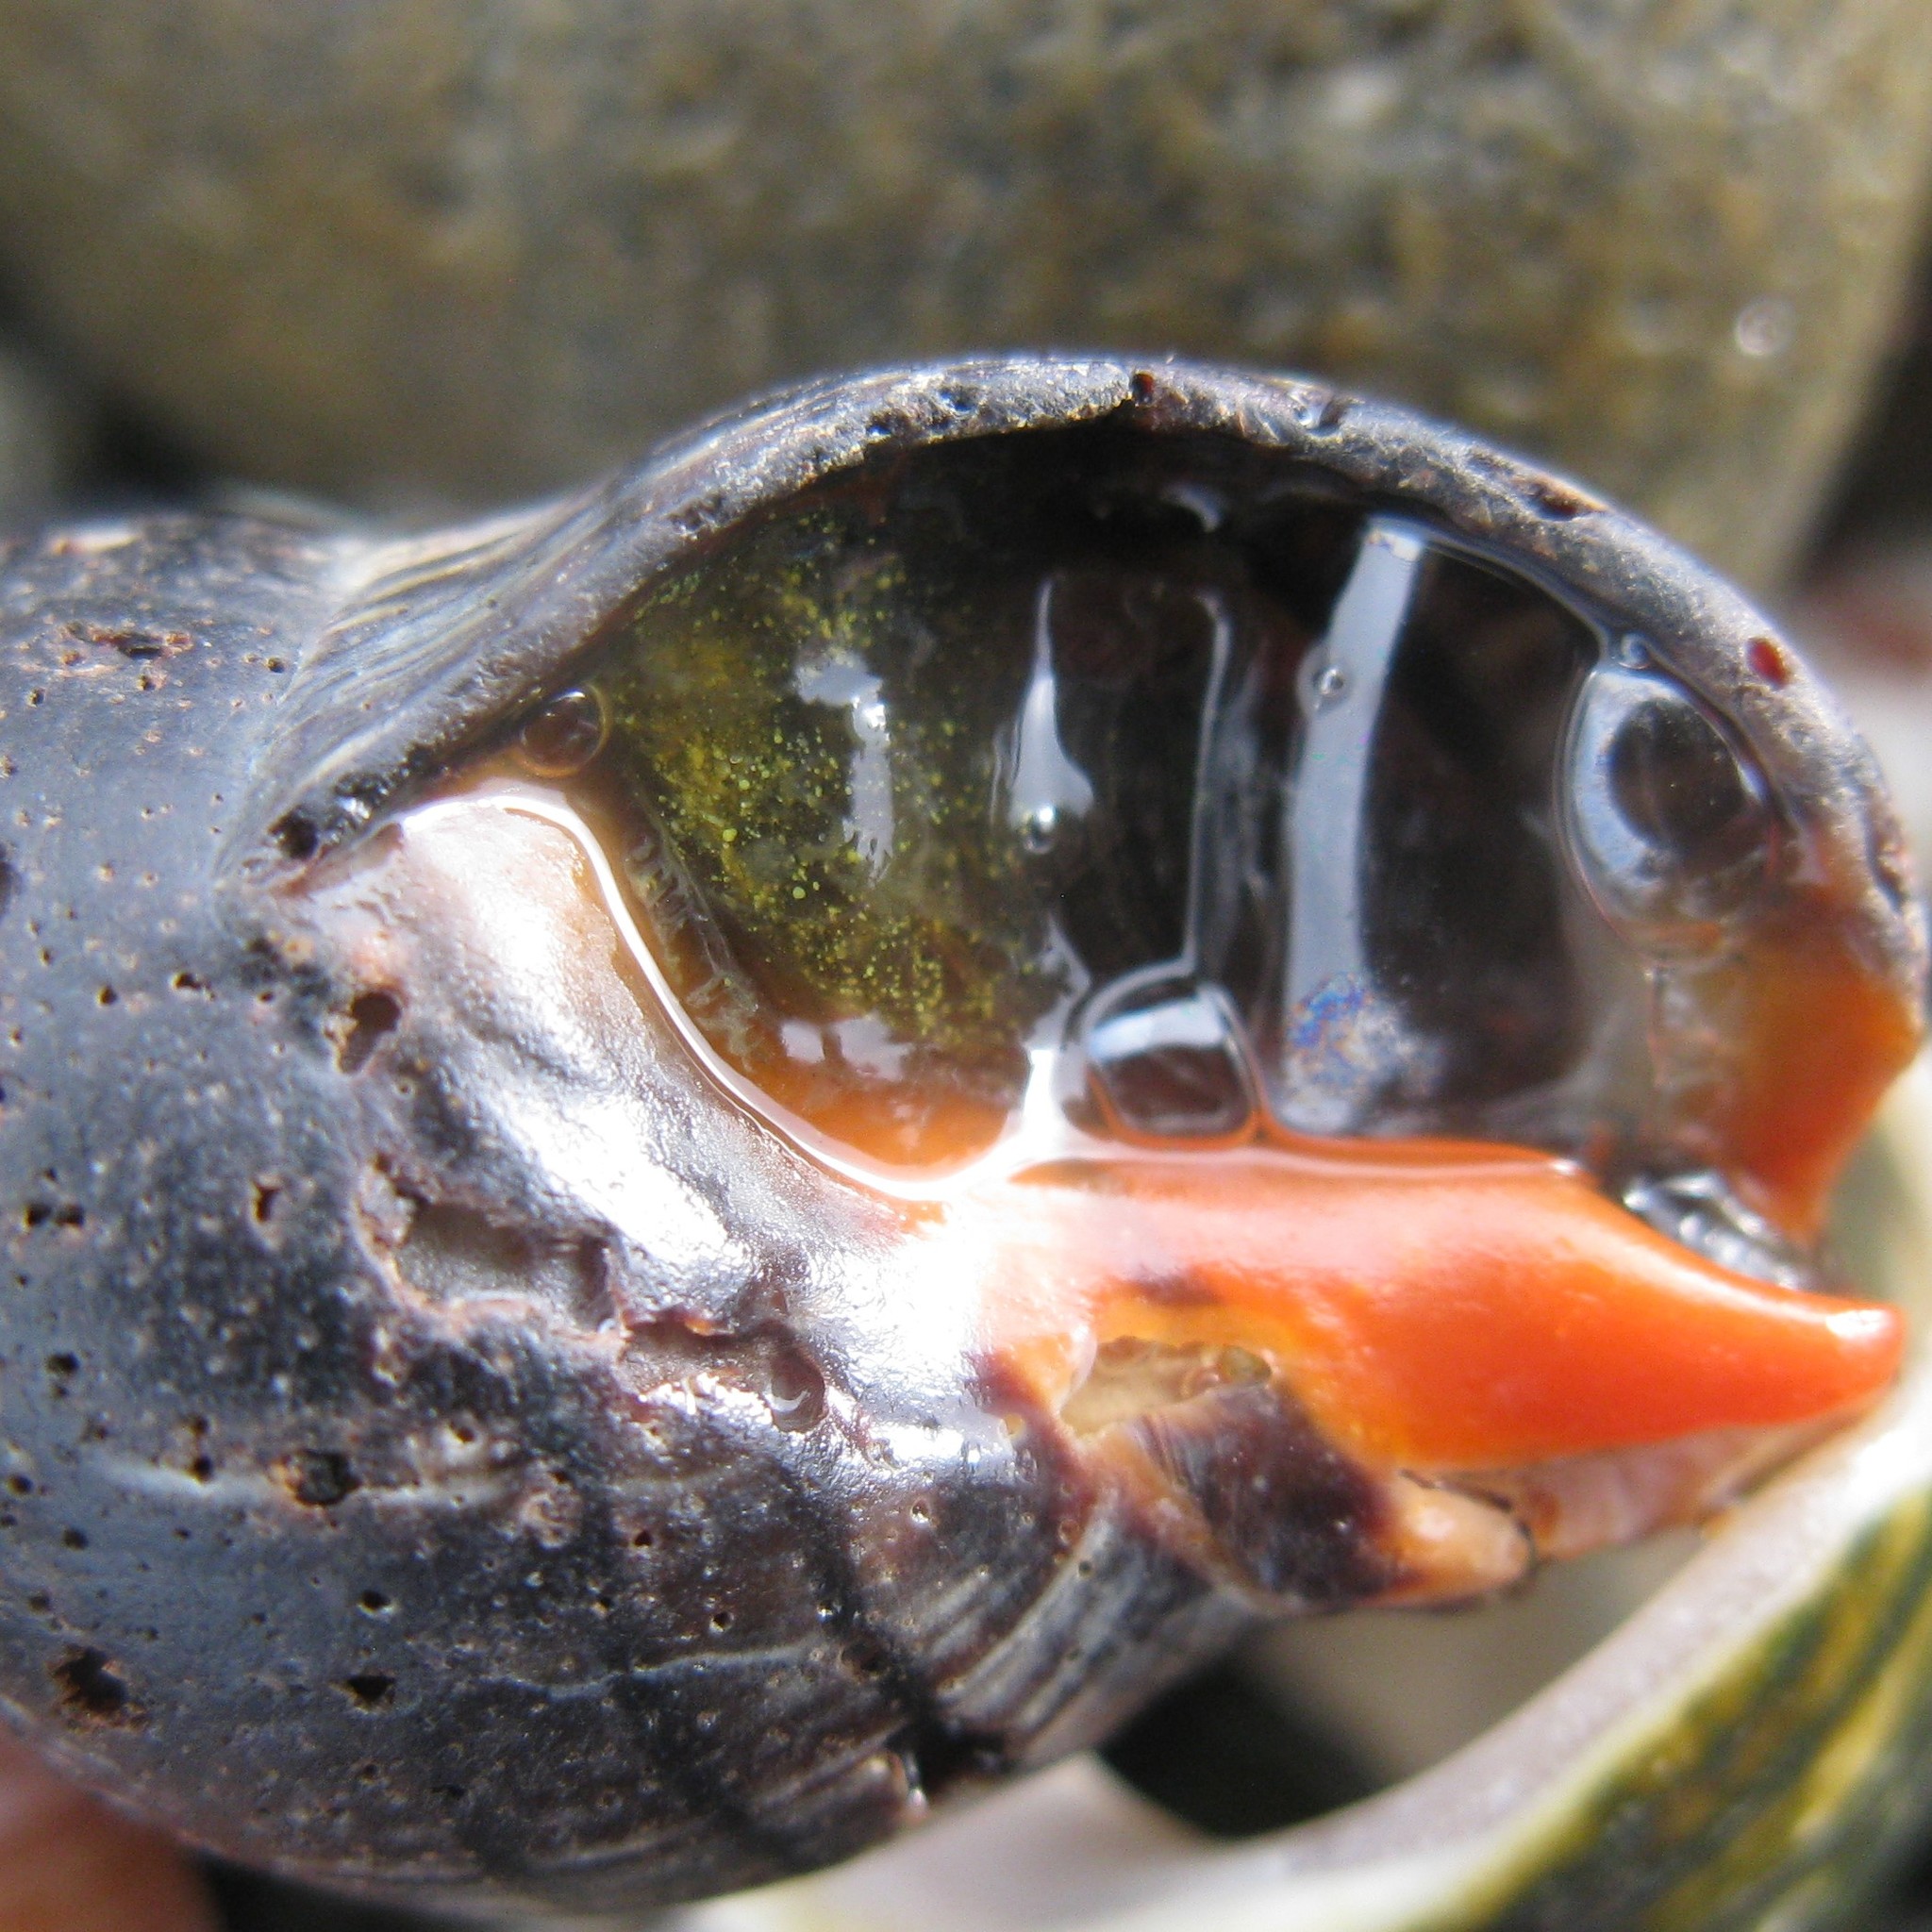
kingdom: Animalia
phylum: Mollusca
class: Gastropoda
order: Neogastropoda
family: Cominellidae
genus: Cominella
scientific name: Cominella virgata
